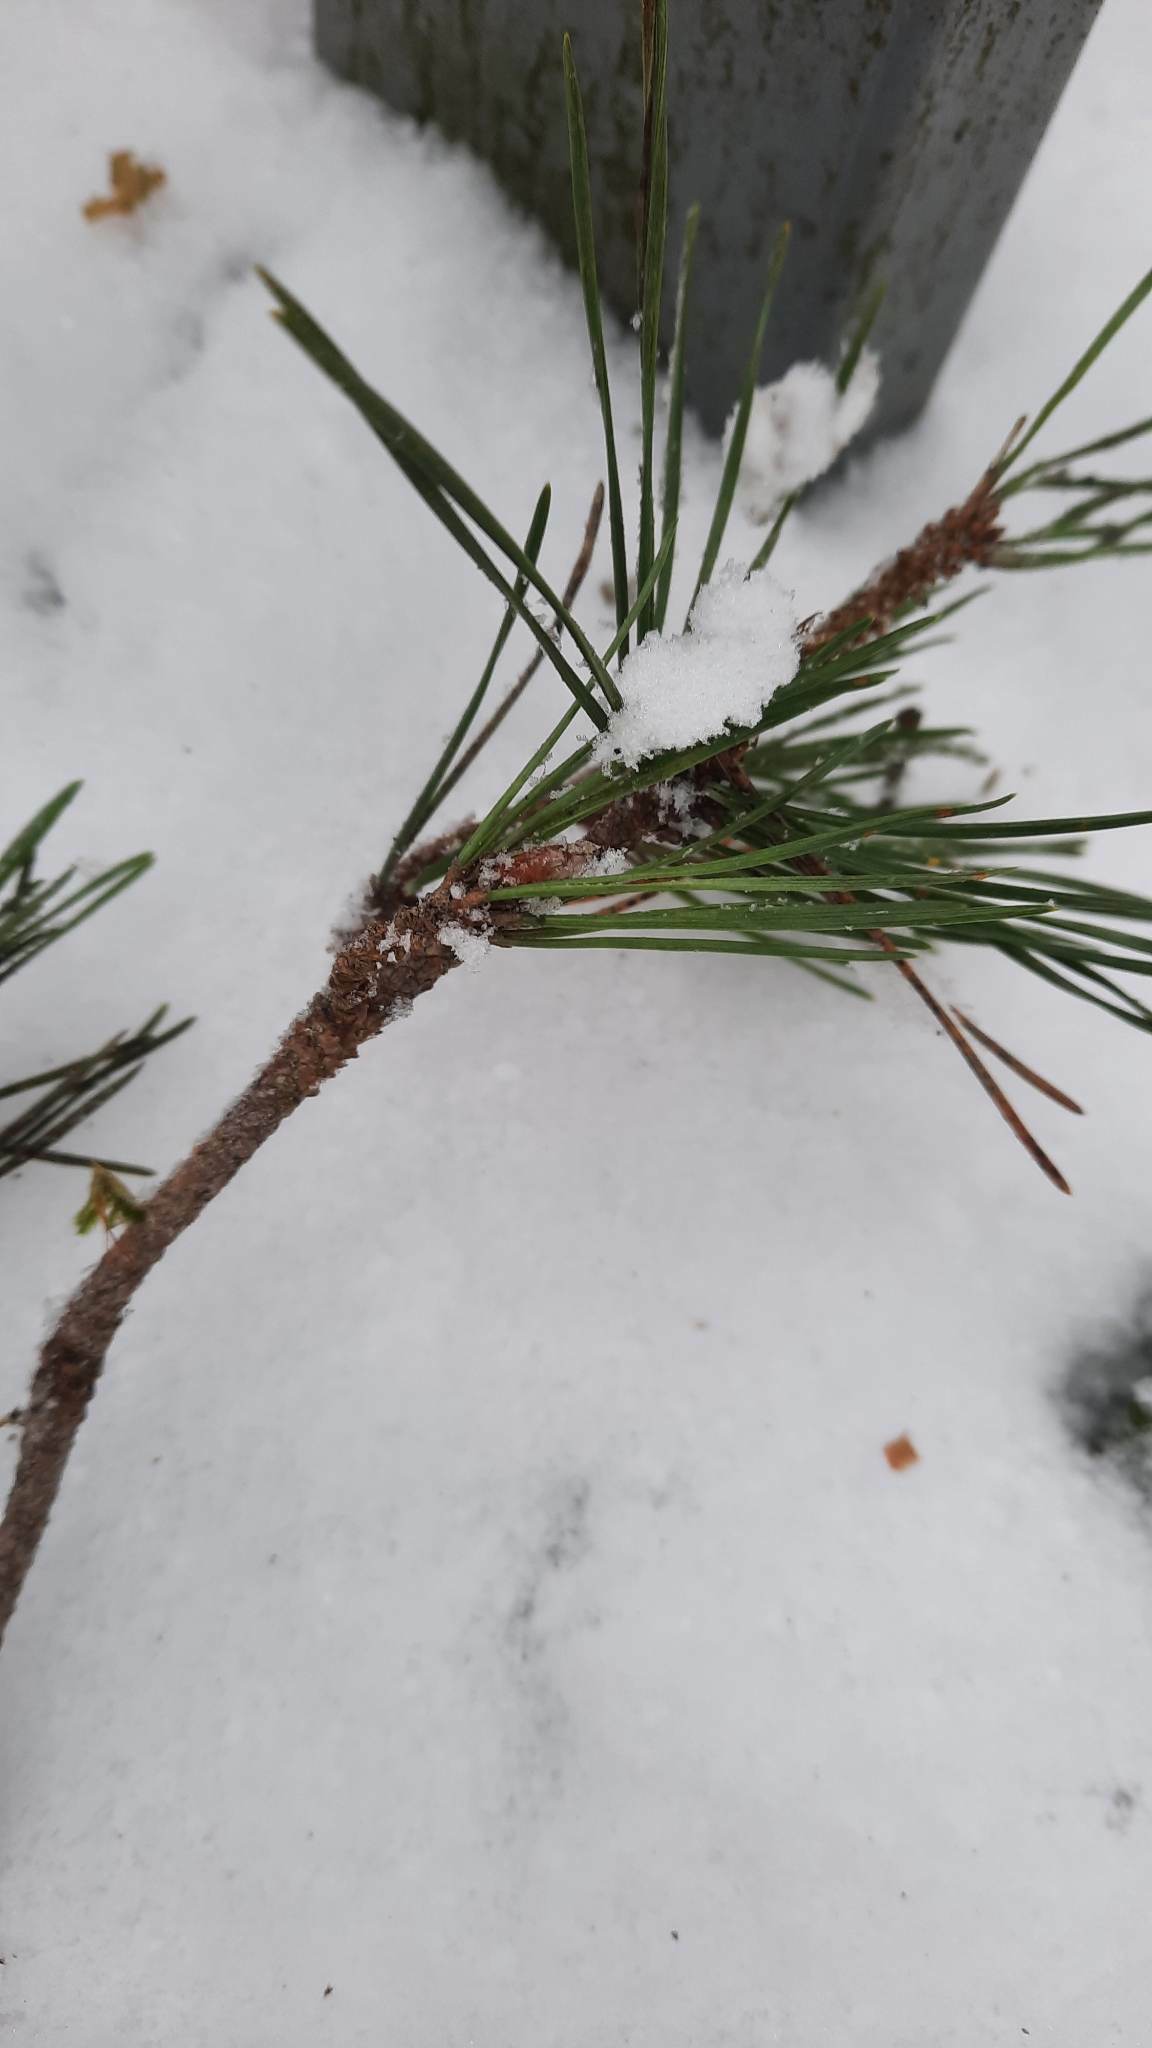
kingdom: Plantae
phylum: Tracheophyta
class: Pinopsida
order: Pinales
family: Pinaceae
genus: Pinus
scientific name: Pinus sylvestris
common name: Scots pine
